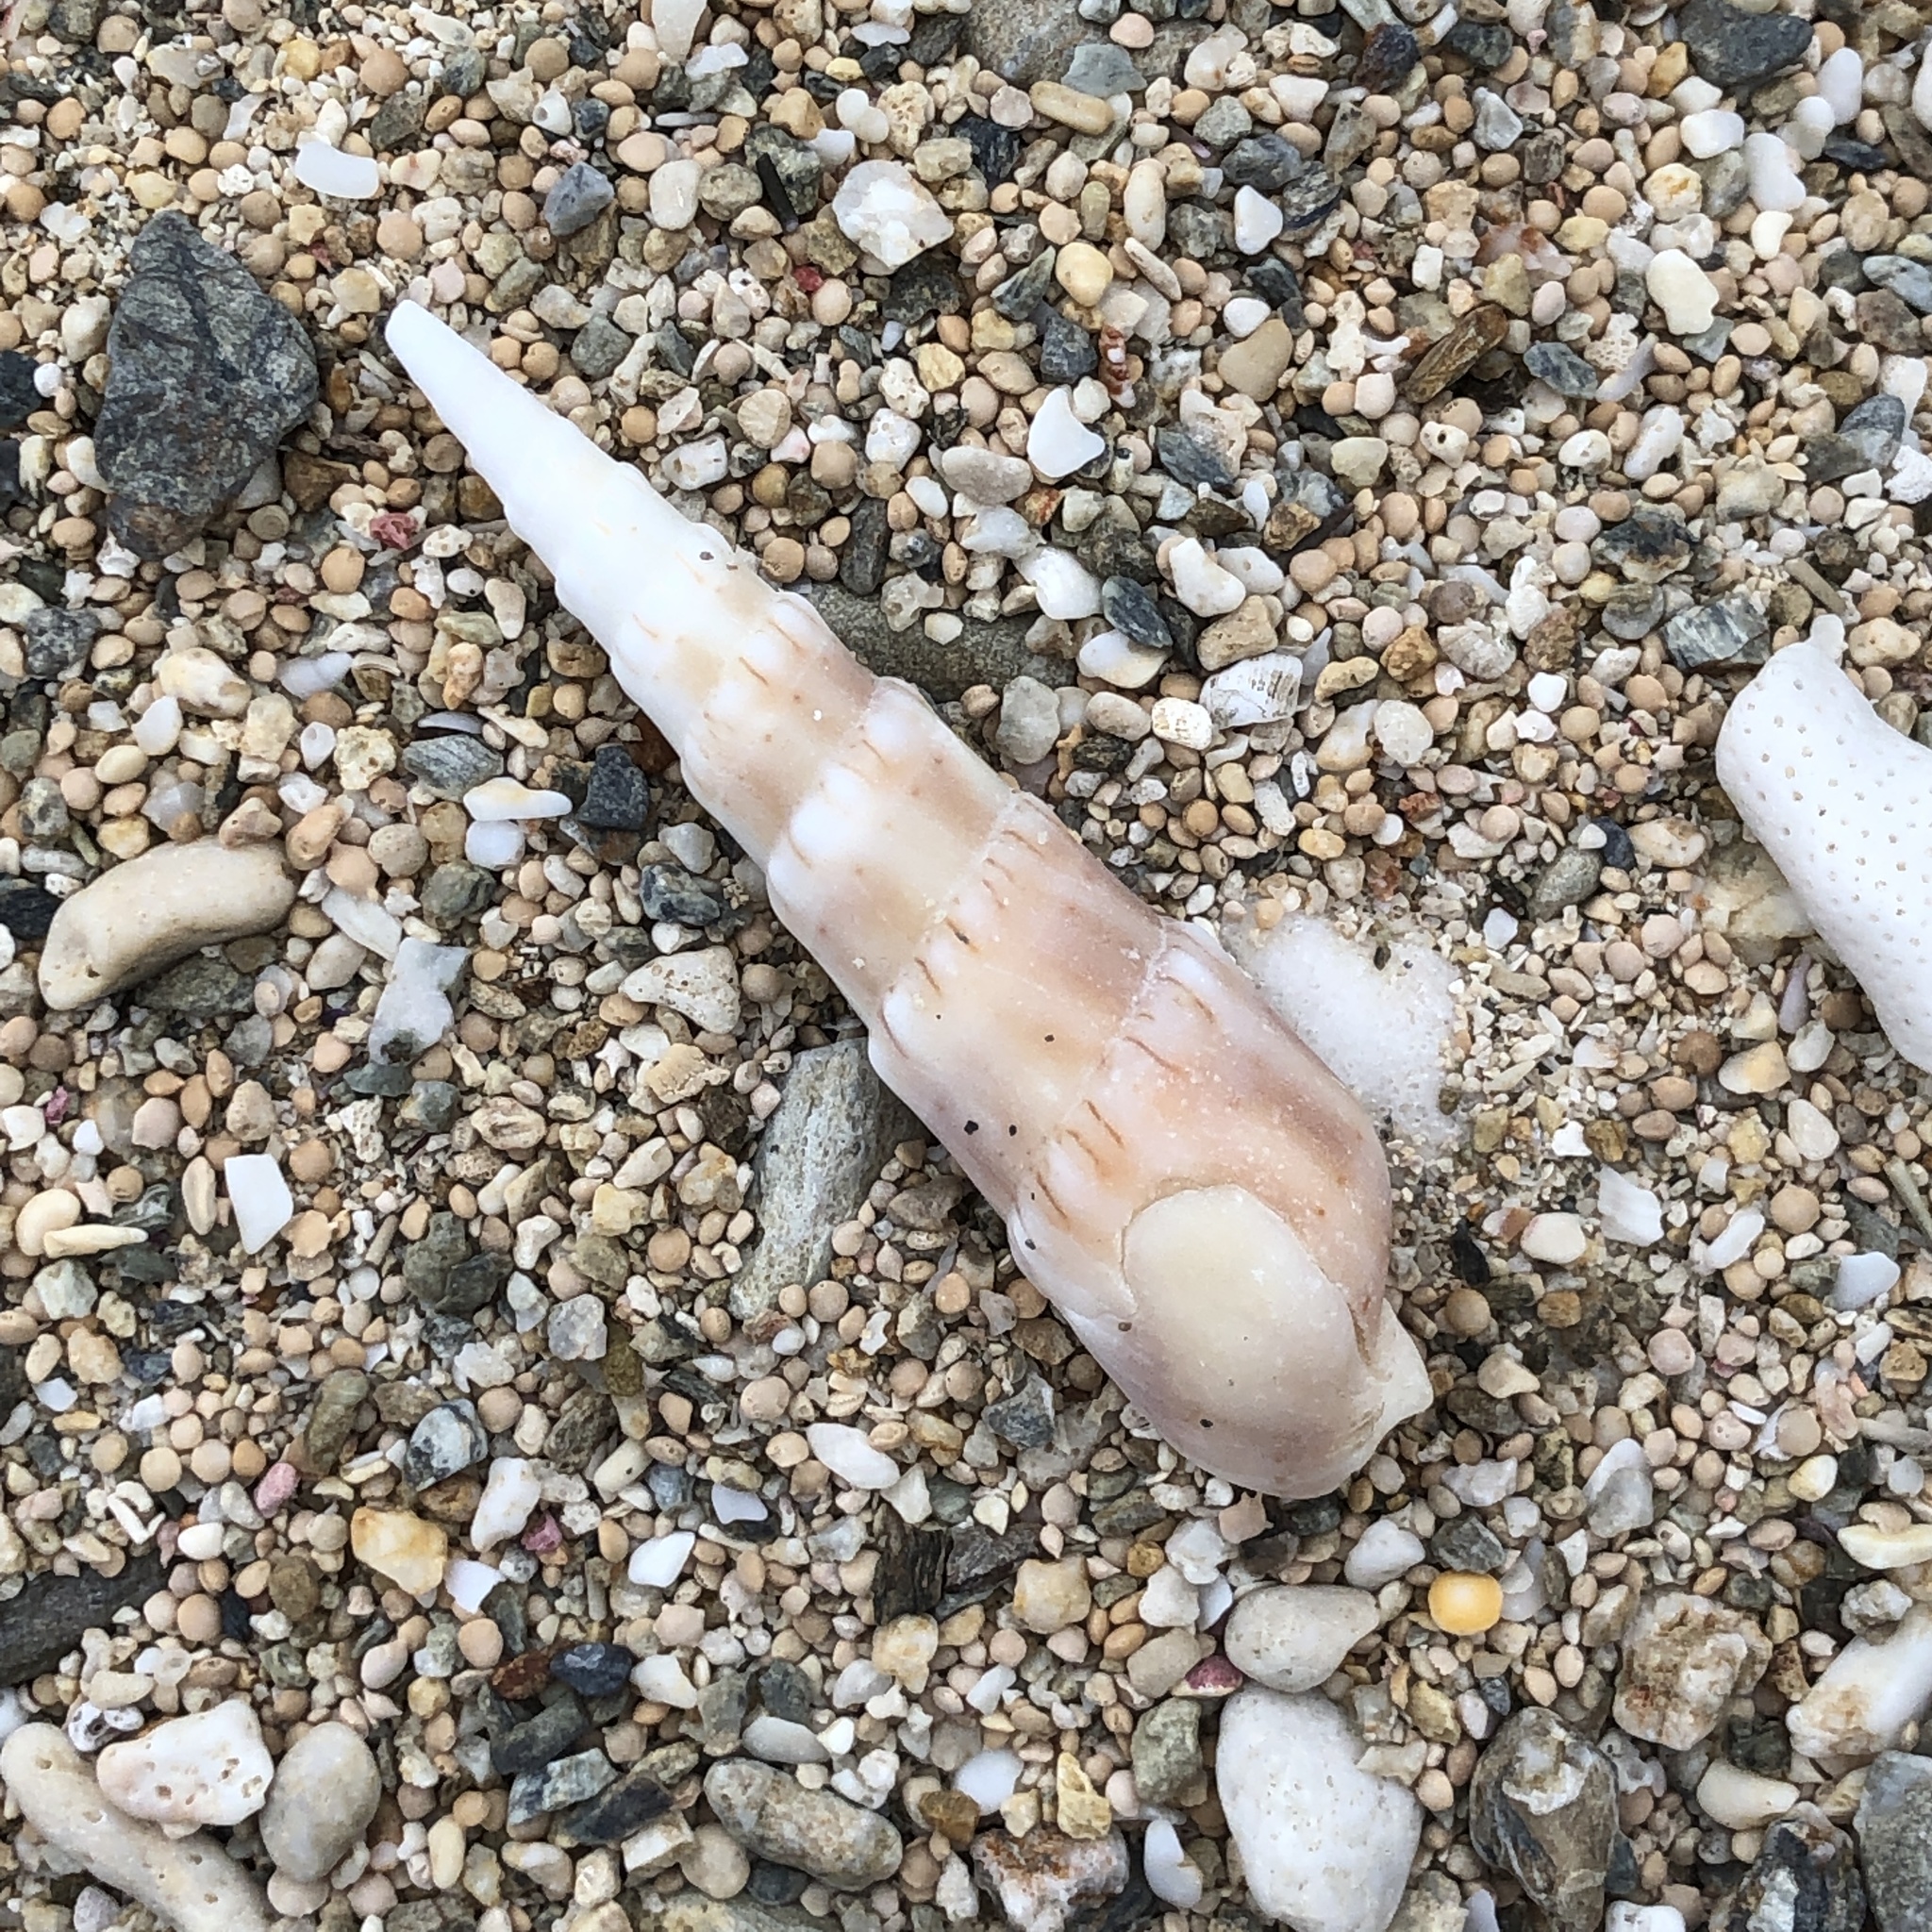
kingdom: Animalia
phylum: Mollusca
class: Gastropoda
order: Neogastropoda
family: Terebridae
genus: Oxymeris
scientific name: Oxymeris crenulata
